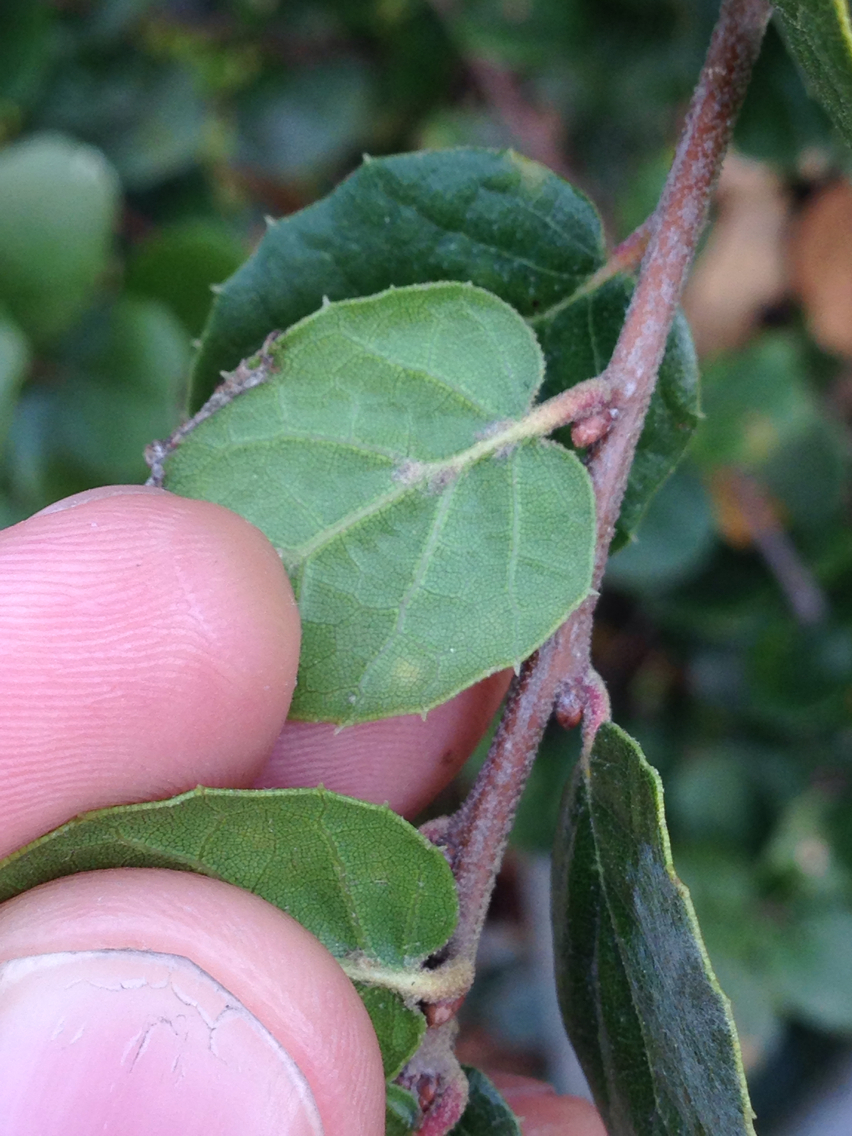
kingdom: Plantae
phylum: Tracheophyta
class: Magnoliopsida
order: Fagales
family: Fagaceae
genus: Quercus
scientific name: Quercus agrifolia
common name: California live oak
